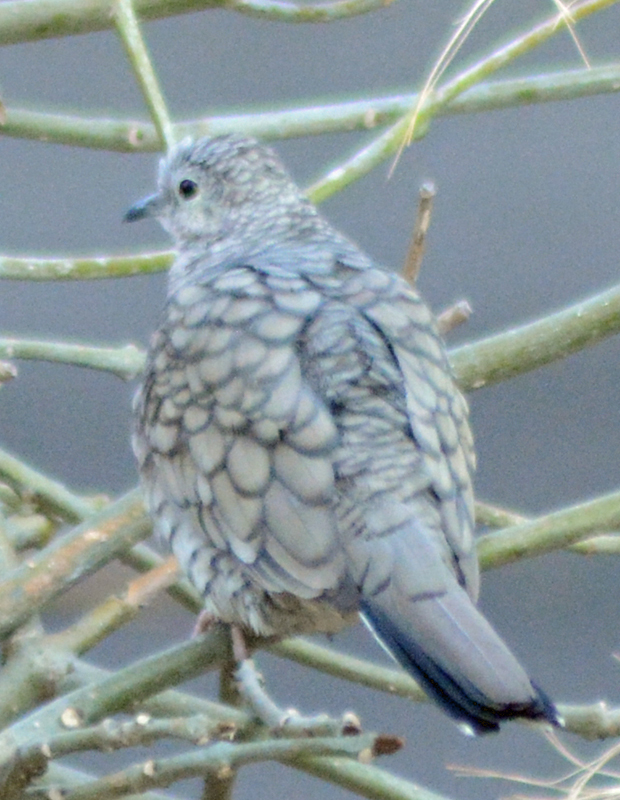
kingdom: Animalia
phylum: Chordata
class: Aves
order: Columbiformes
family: Columbidae
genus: Columbina
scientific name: Columbina inca
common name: Inca dove
